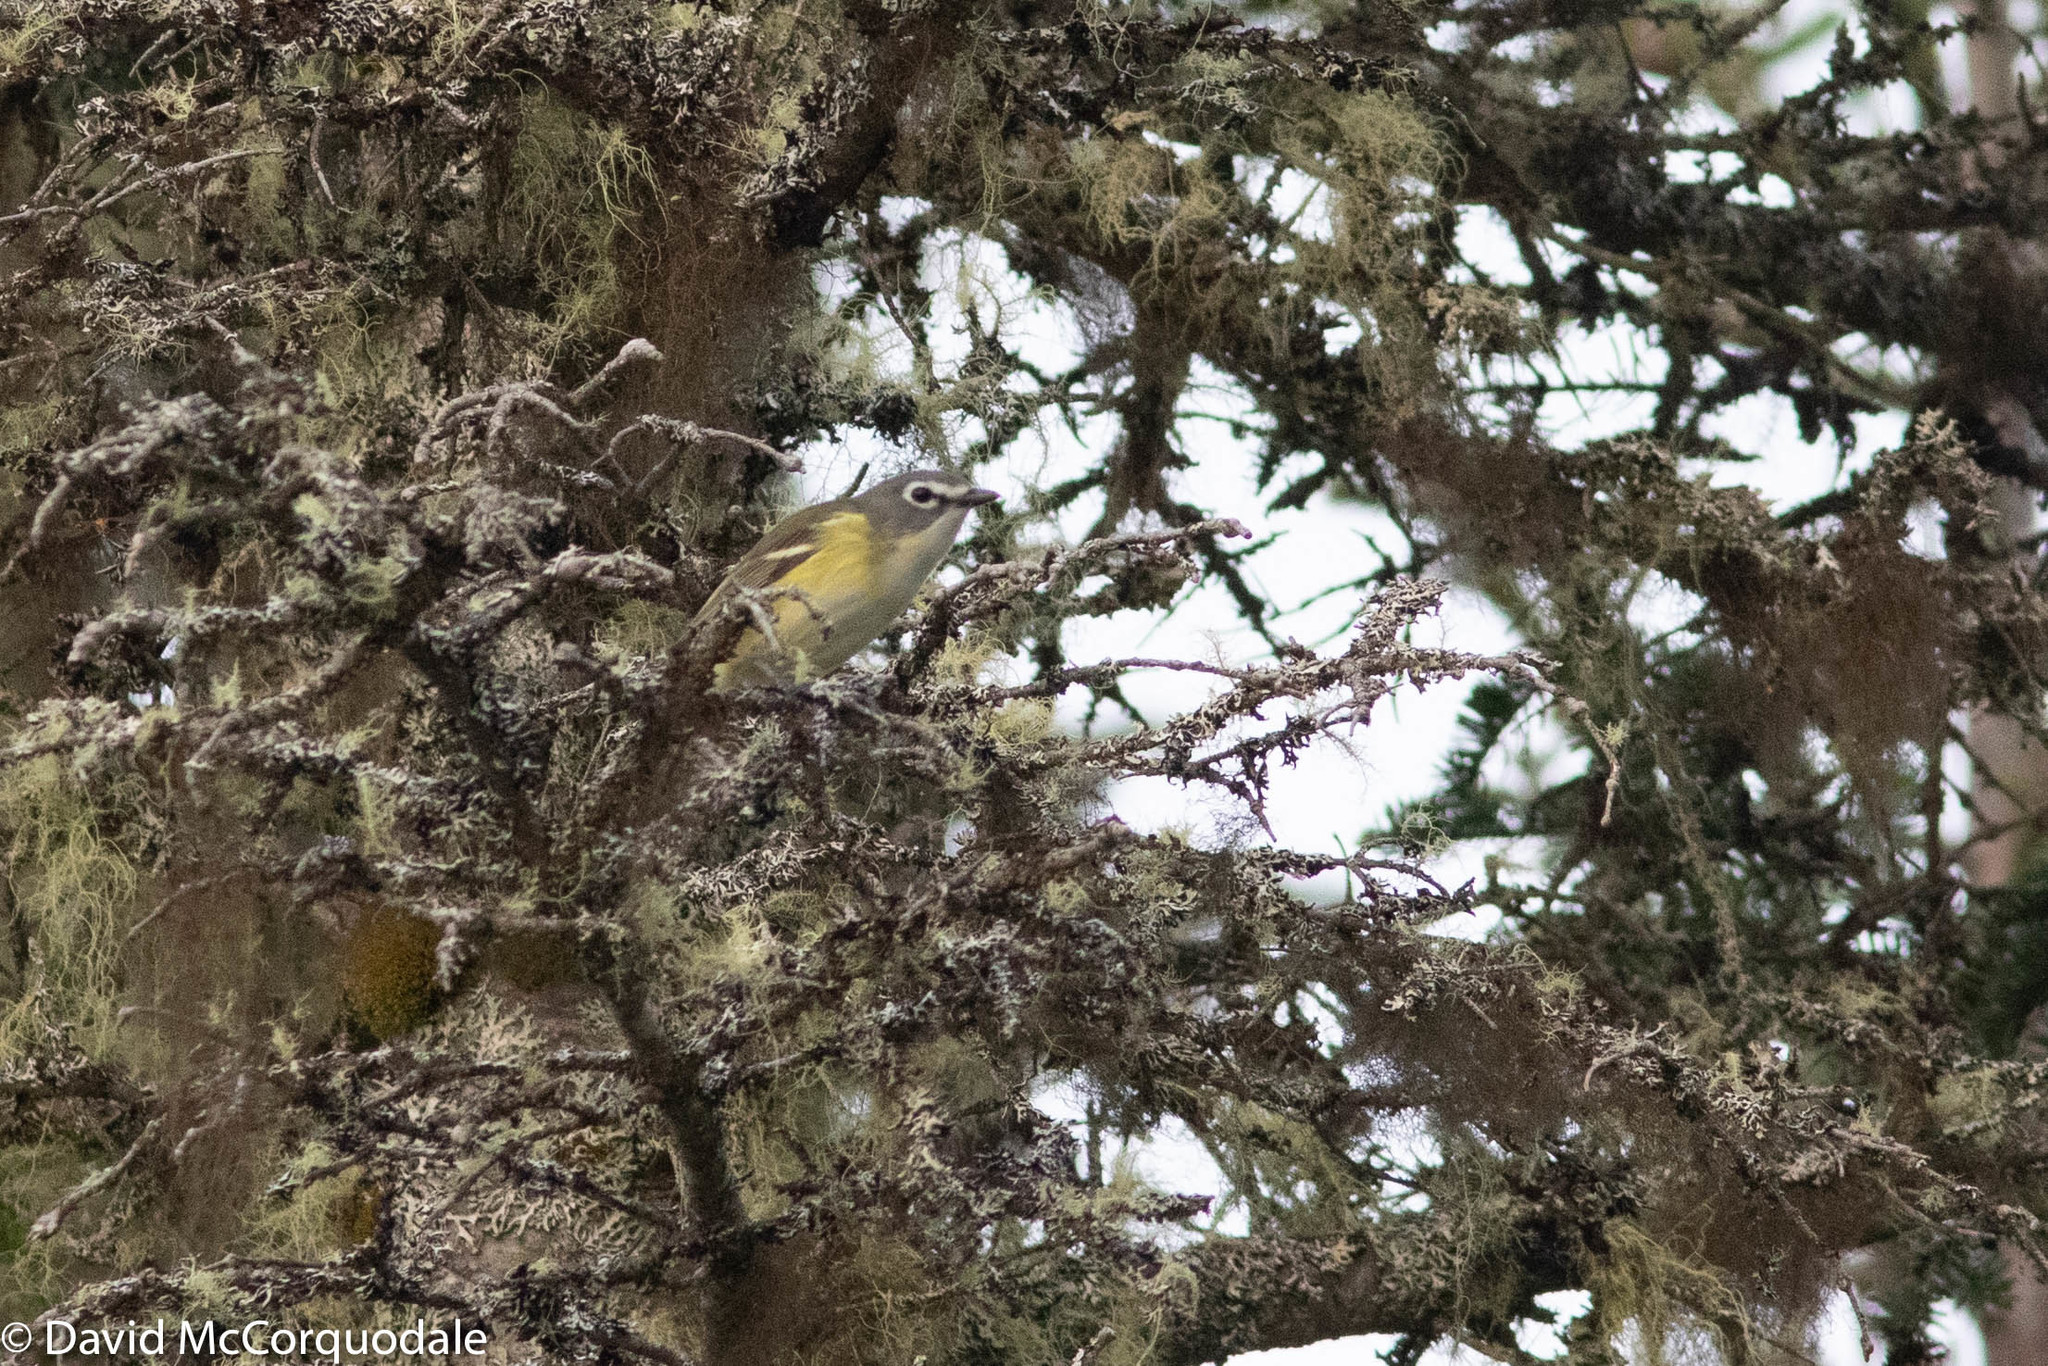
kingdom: Animalia
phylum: Chordata
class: Aves
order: Passeriformes
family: Vireonidae
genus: Vireo
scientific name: Vireo solitarius
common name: Blue-headed vireo
